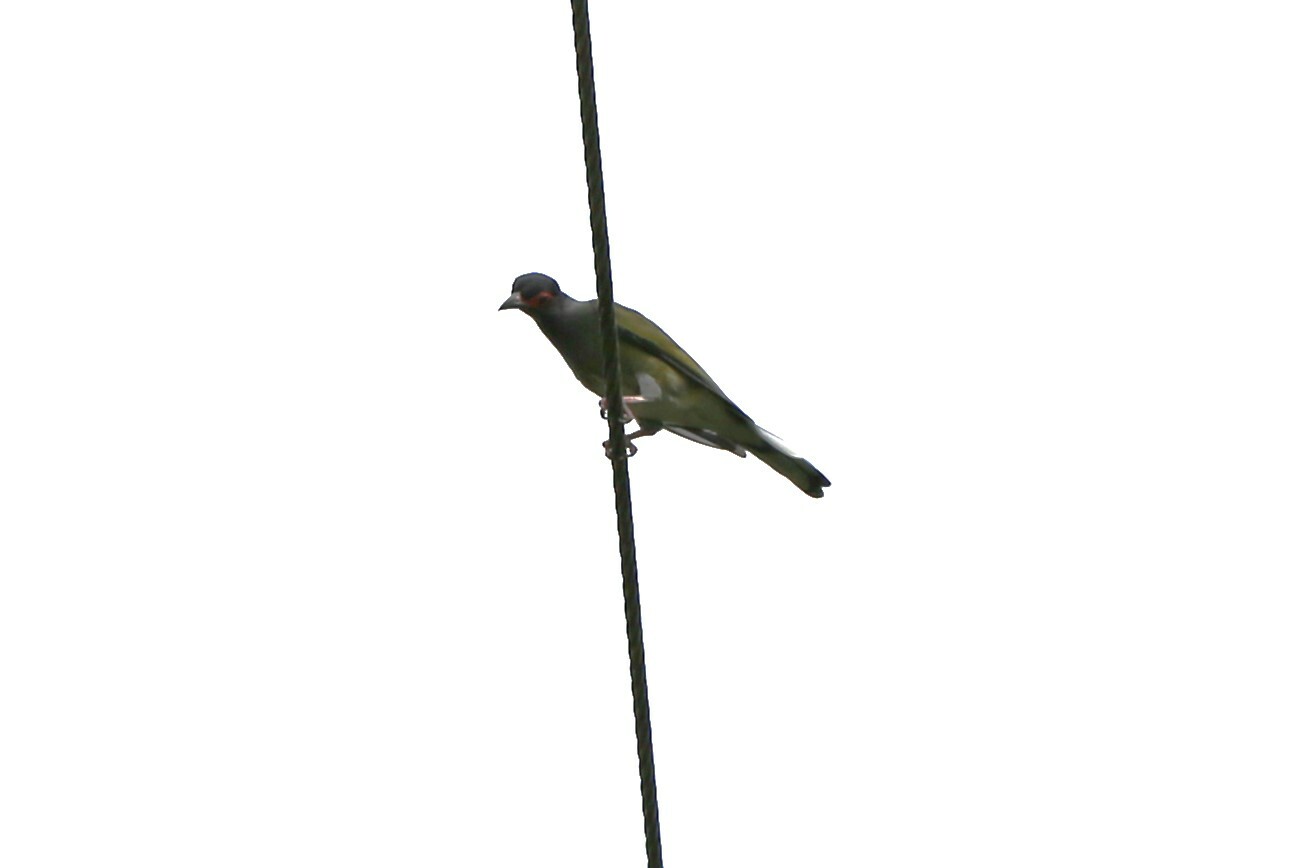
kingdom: Animalia
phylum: Chordata
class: Aves
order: Passeriformes
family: Oriolidae
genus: Sphecotheres
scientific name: Sphecotheres vieilloti
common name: Australasian figbird
